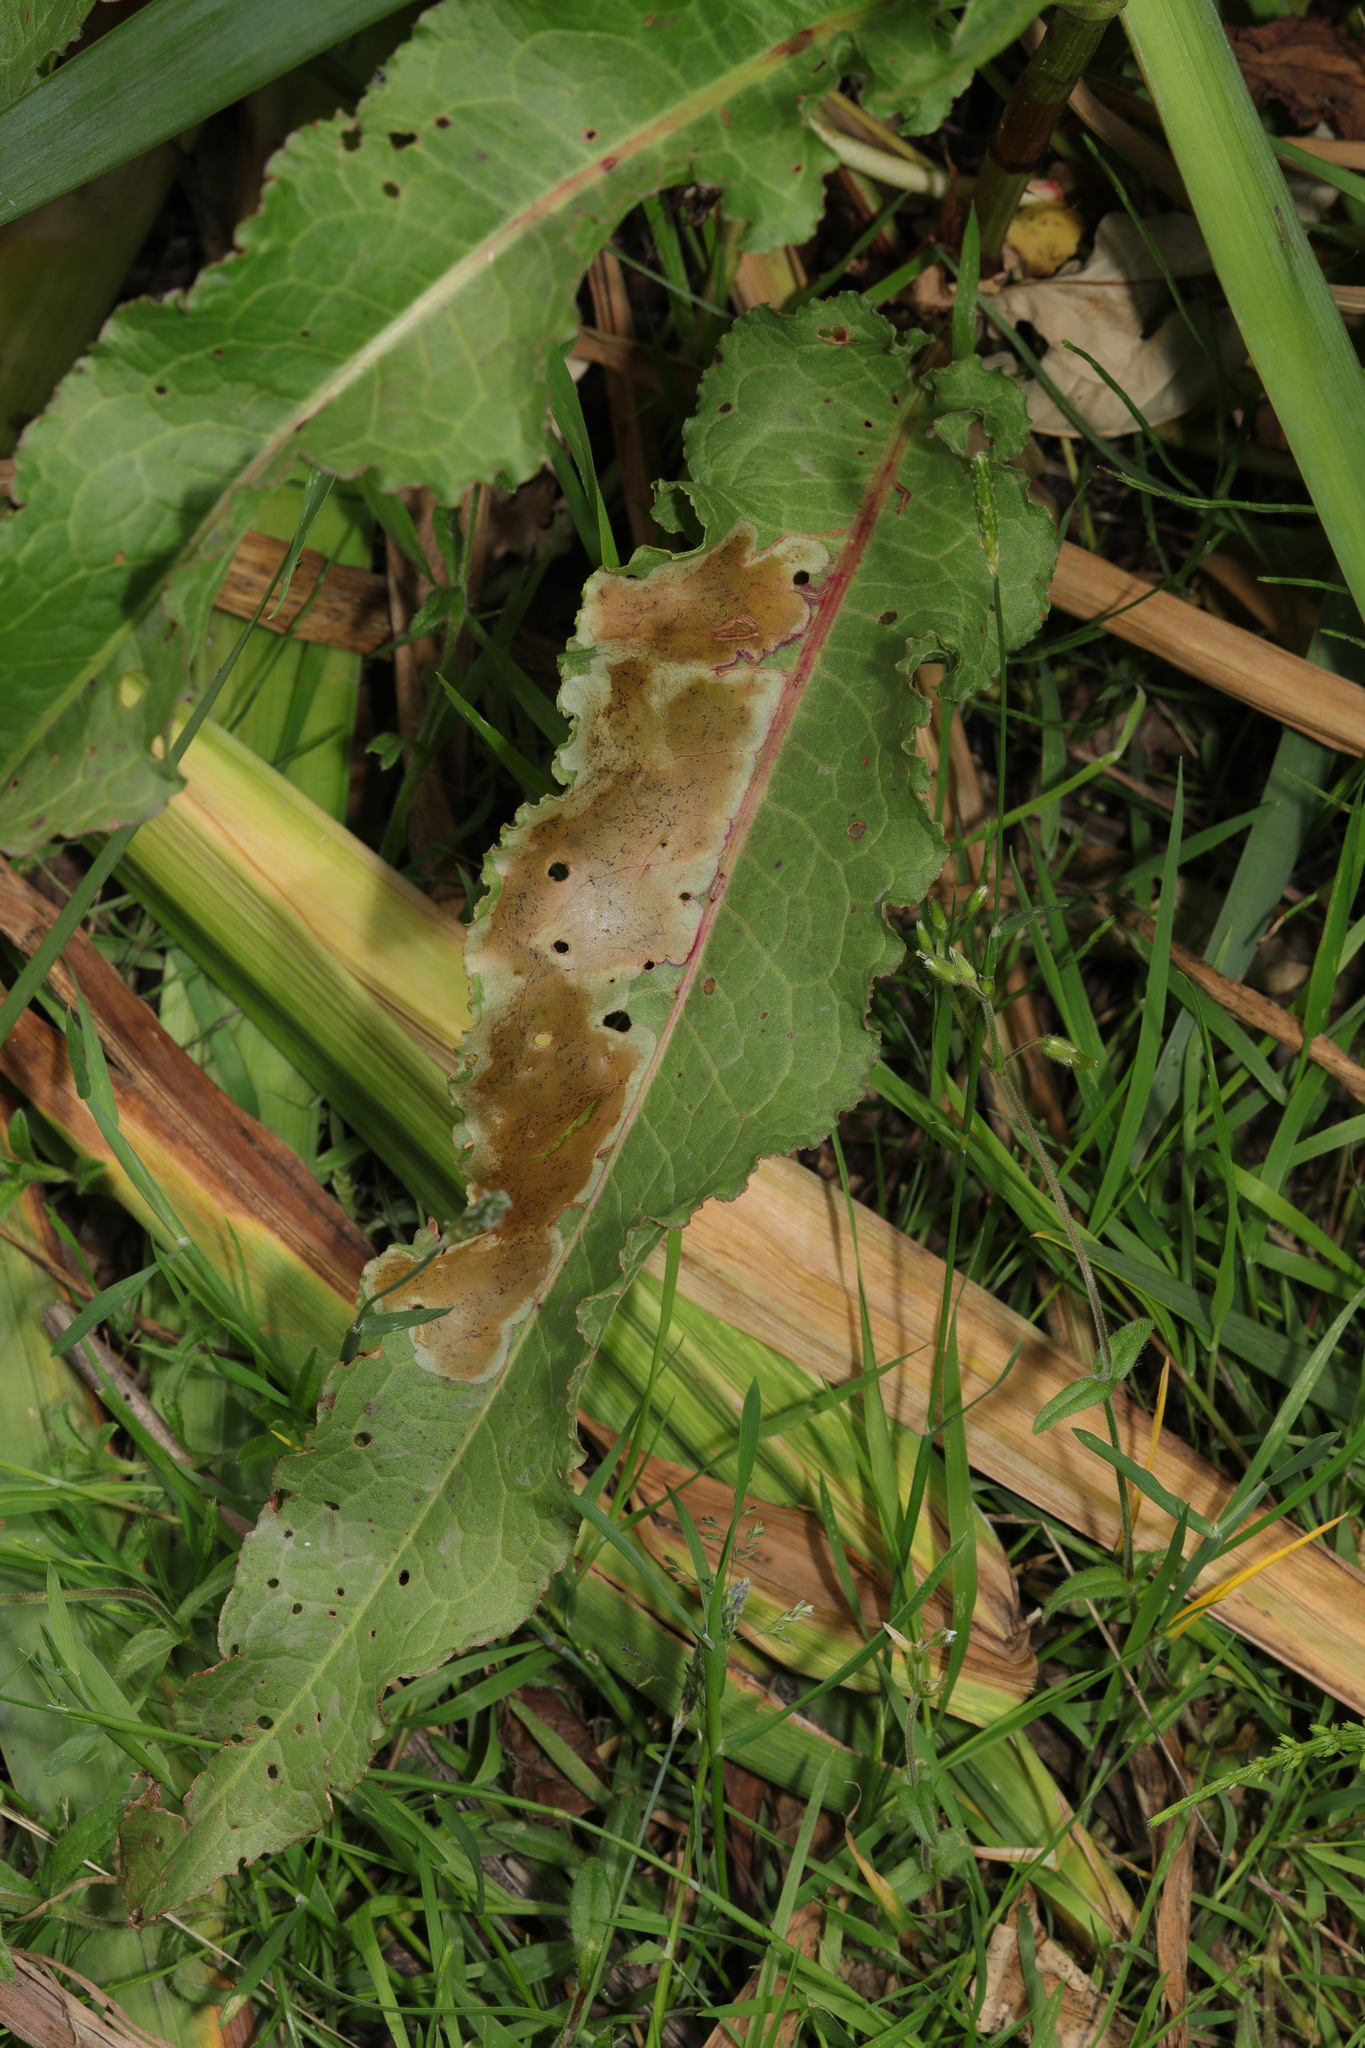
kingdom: Plantae
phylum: Tracheophyta
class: Magnoliopsida
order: Caryophyllales
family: Polygonaceae
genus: Rumex
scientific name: Rumex crispus
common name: Curled dock
